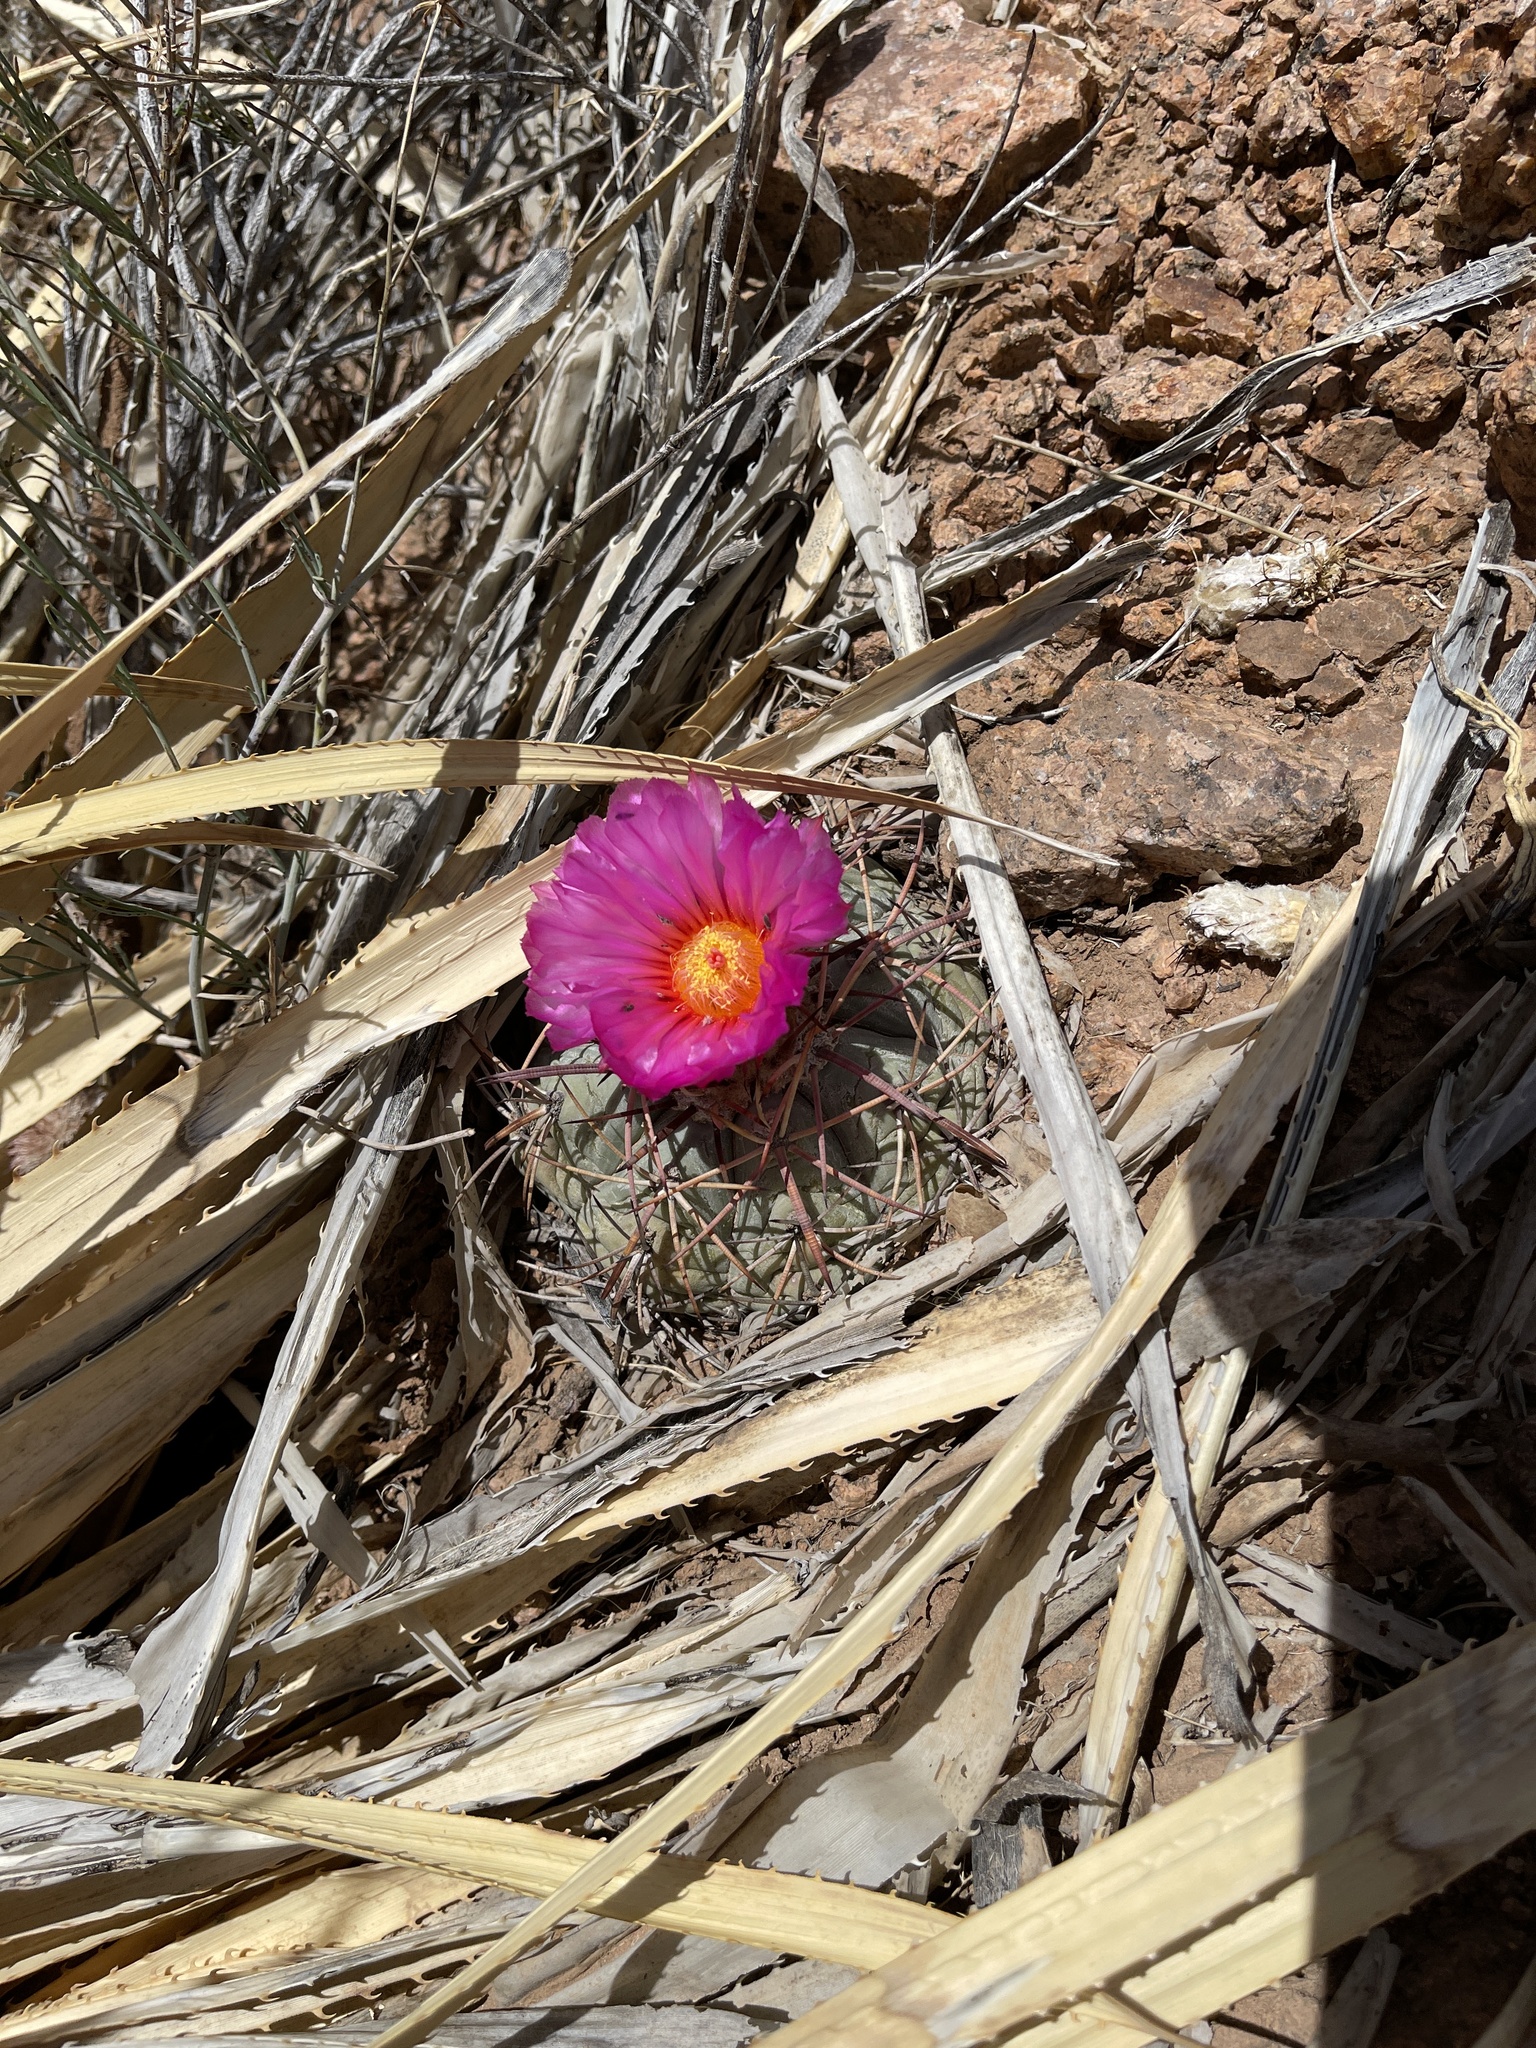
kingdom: Plantae
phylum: Tracheophyta
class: Magnoliopsida
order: Caryophyllales
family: Cactaceae
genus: Echinocactus
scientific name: Echinocactus horizonthalonius
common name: Devilshead
